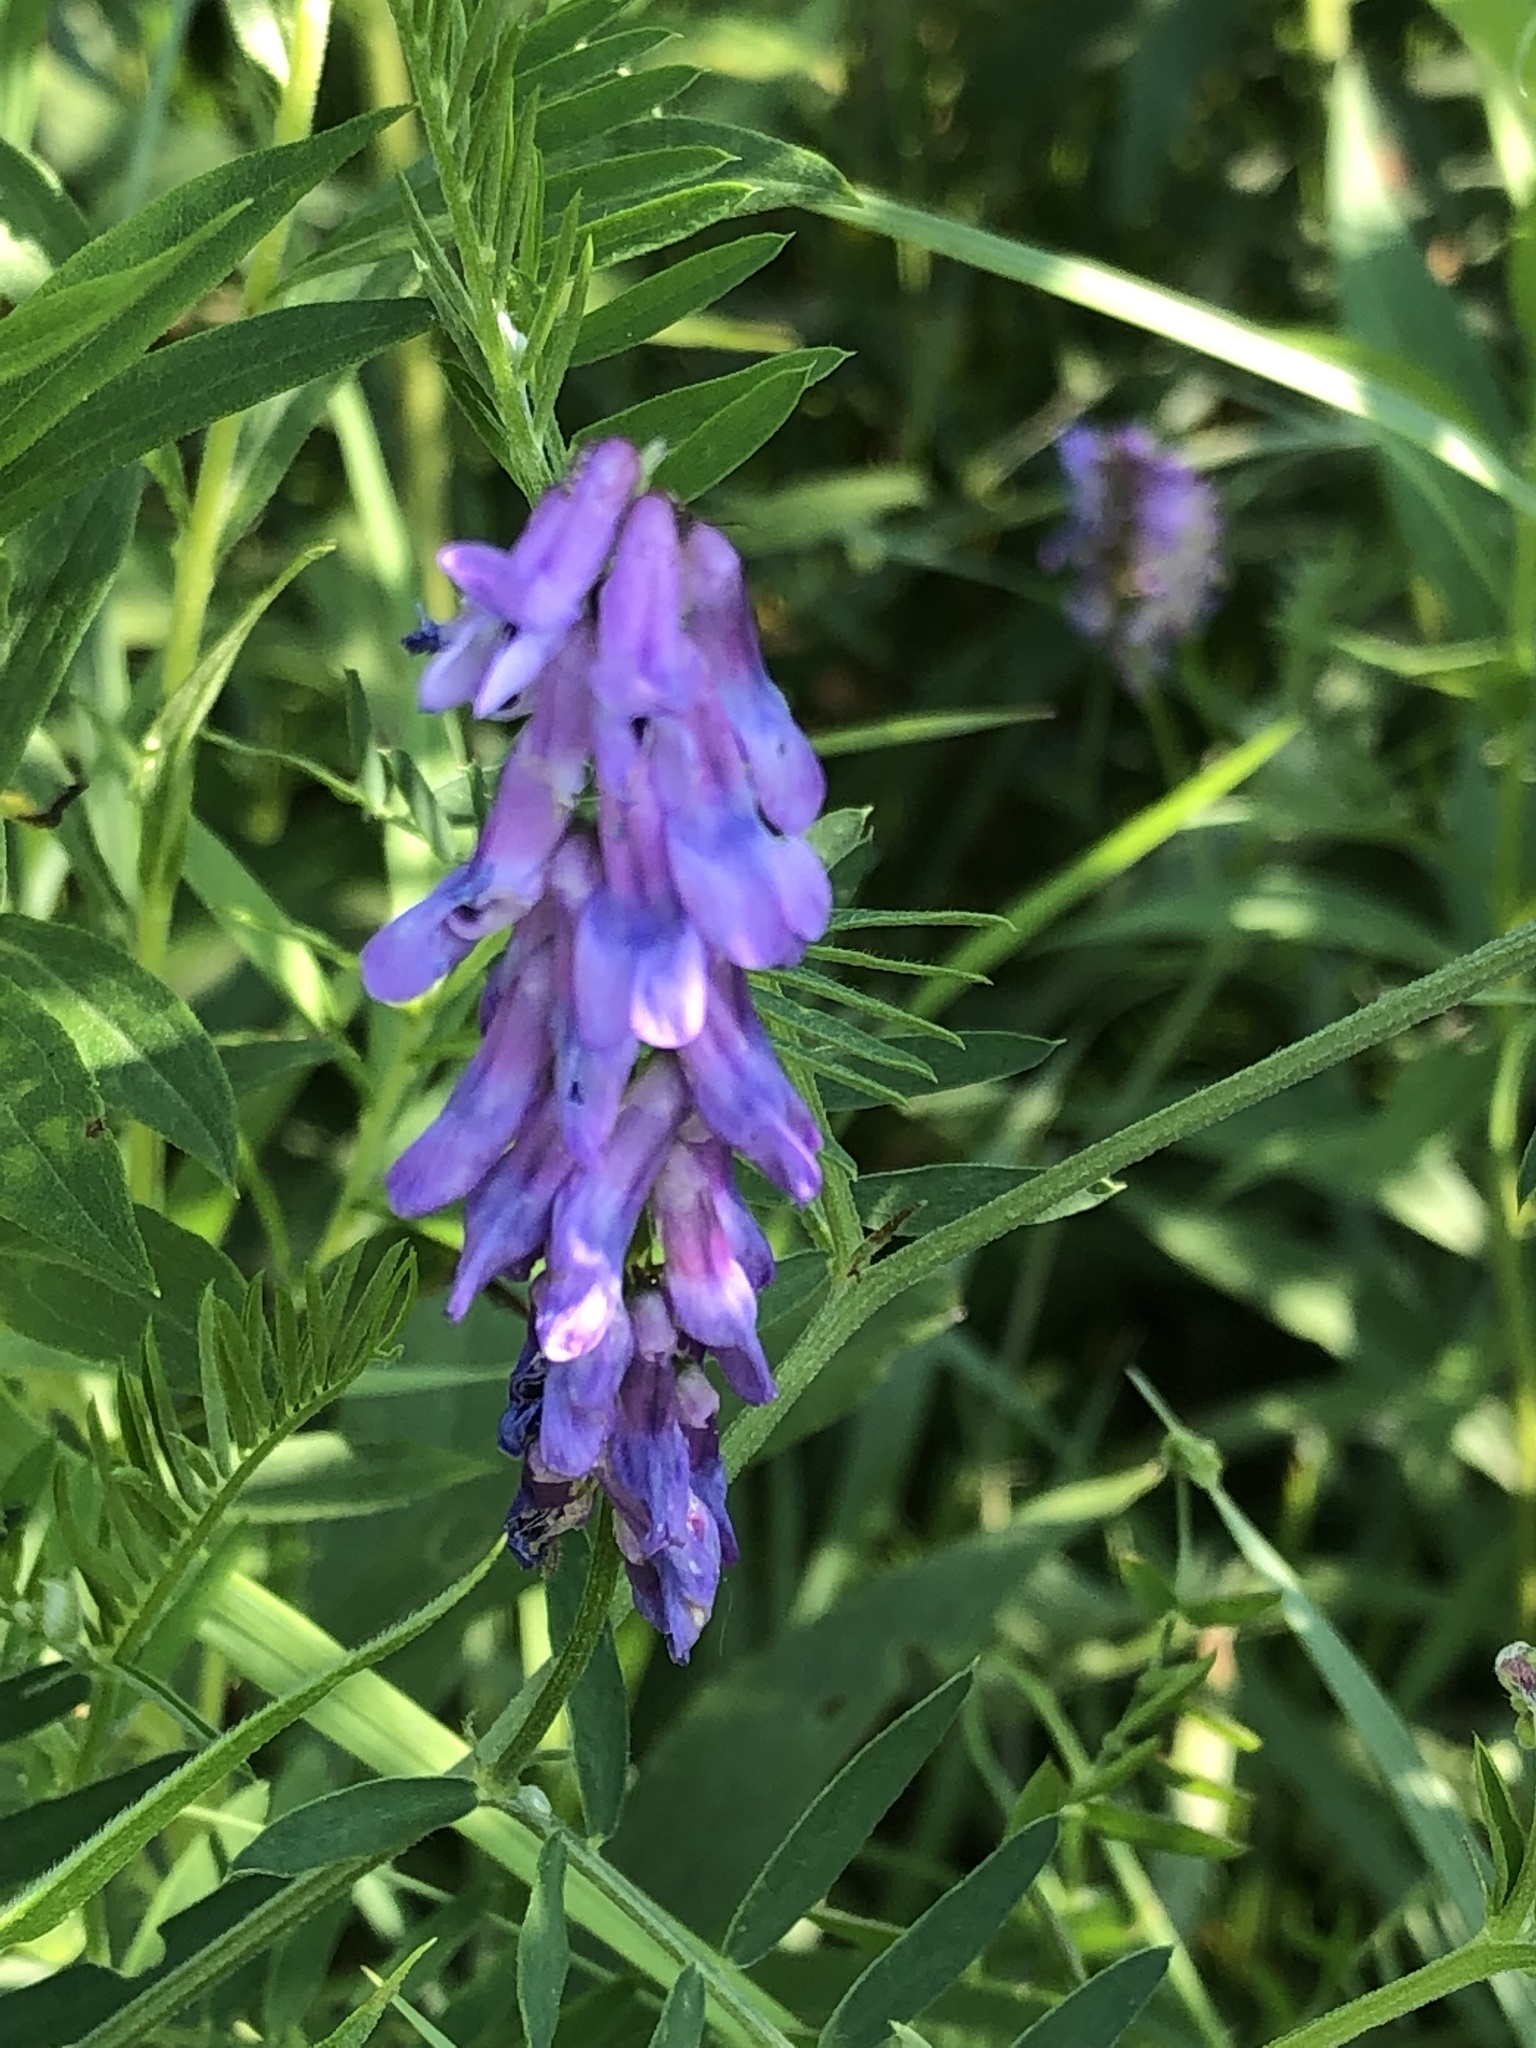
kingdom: Plantae
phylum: Tracheophyta
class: Magnoliopsida
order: Fabales
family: Fabaceae
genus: Vicia
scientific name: Vicia cracca
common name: Bird vetch
